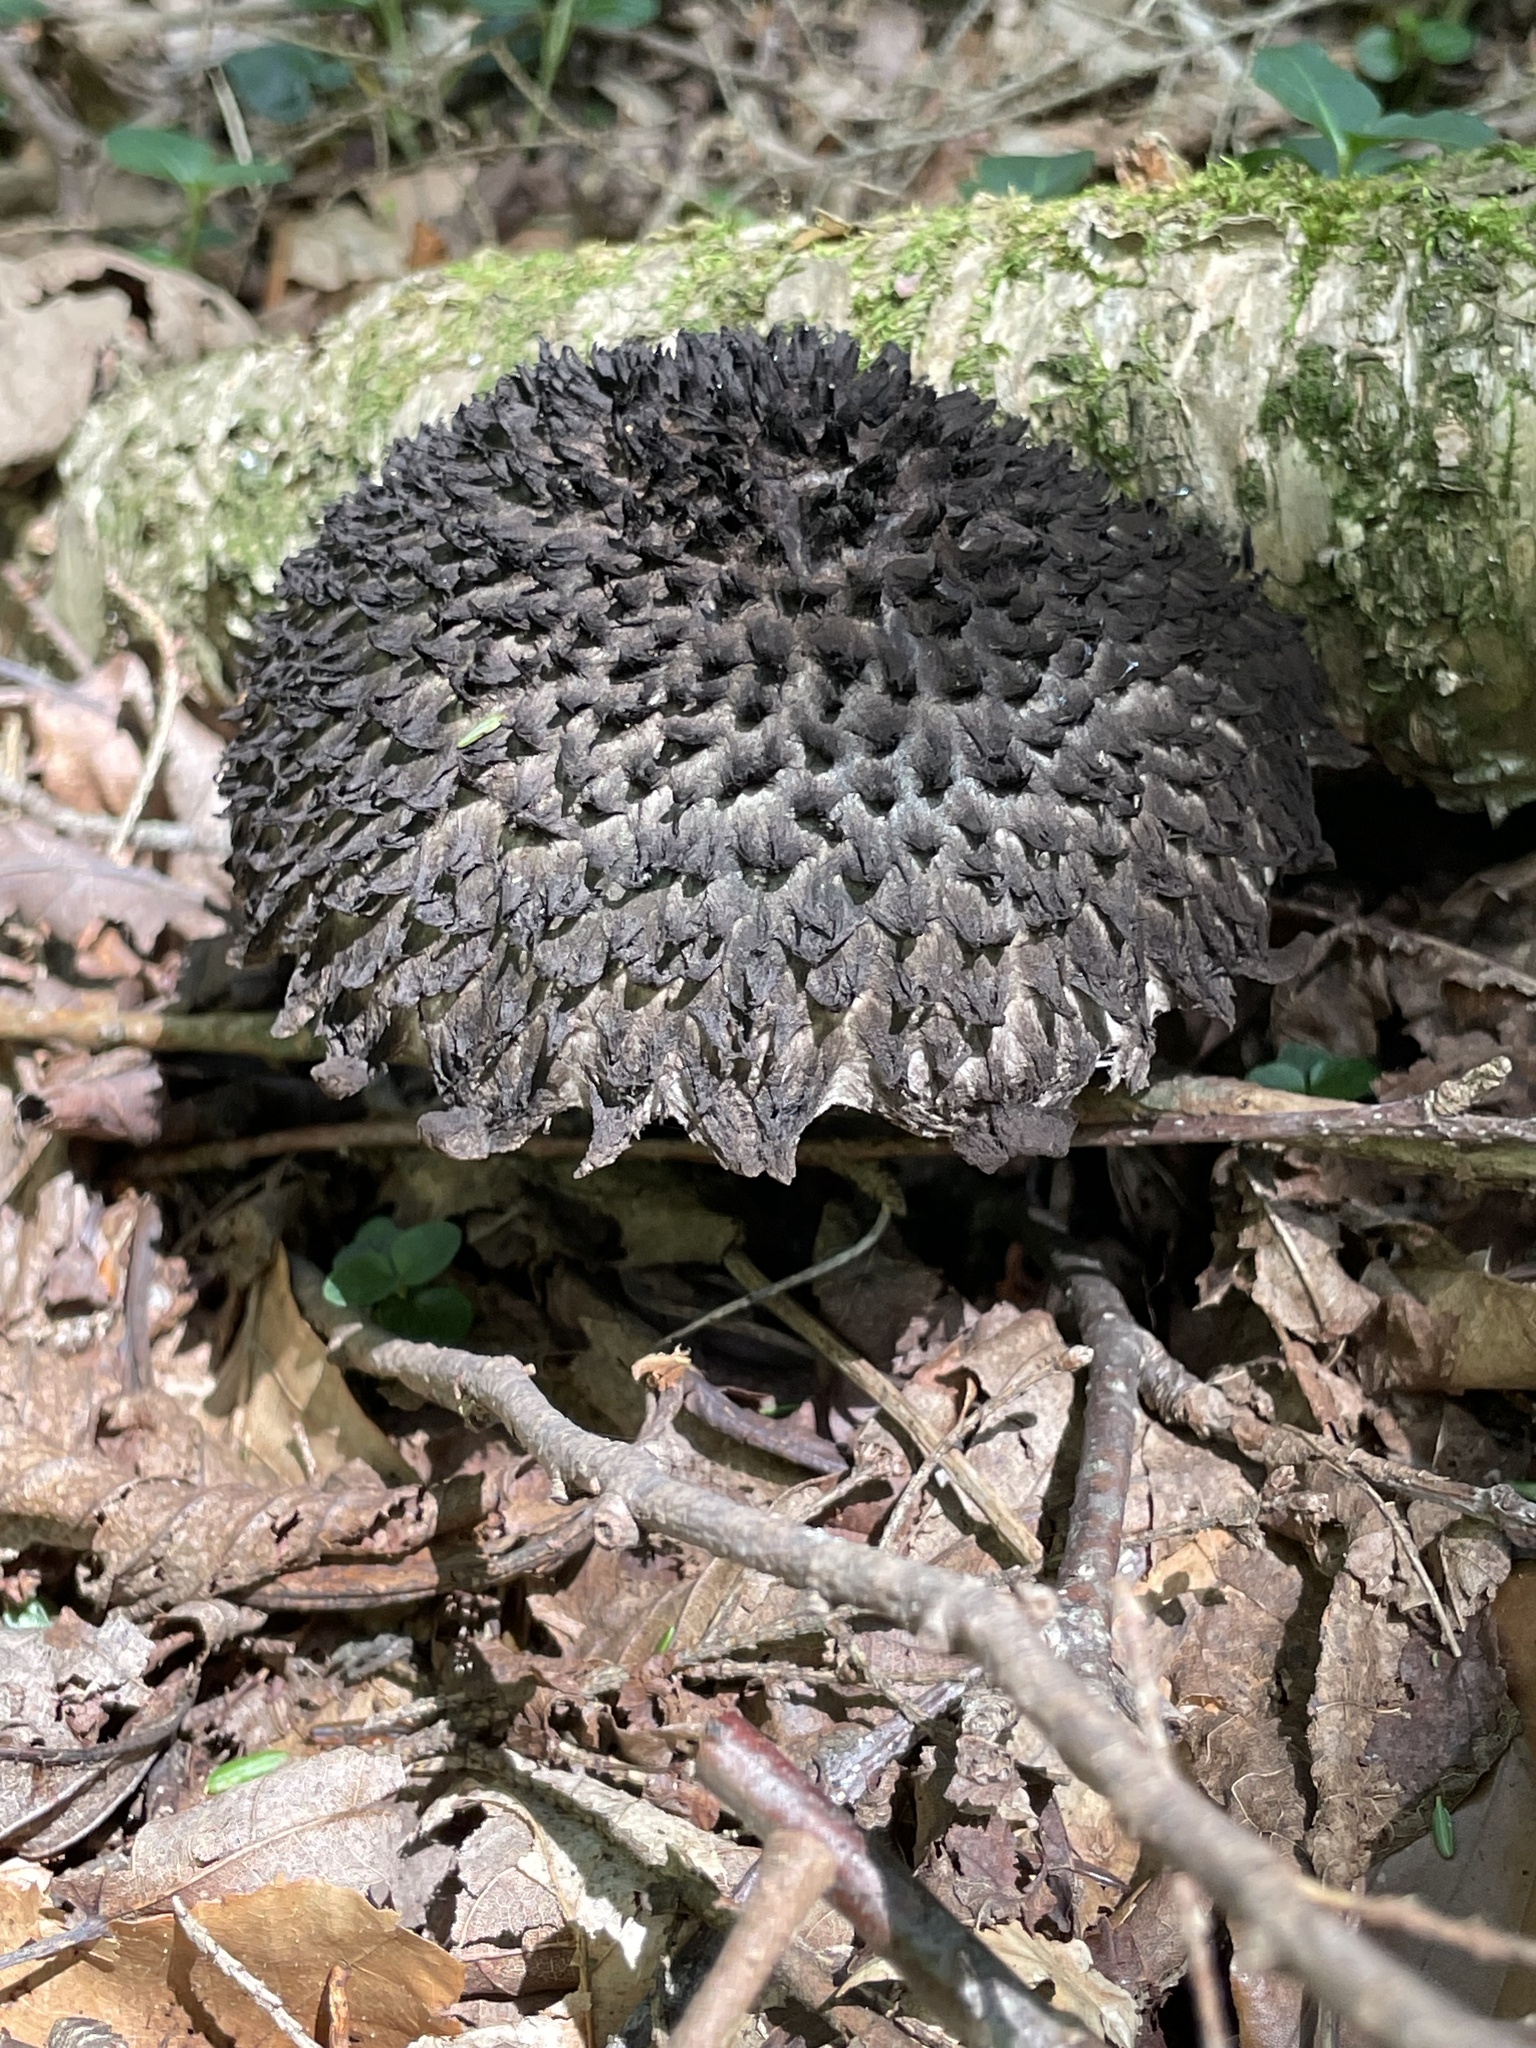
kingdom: Fungi
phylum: Basidiomycota
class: Agaricomycetes
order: Boletales
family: Boletaceae
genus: Strobilomyces
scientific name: Strobilomyces strobilaceus
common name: Old man of the woods
